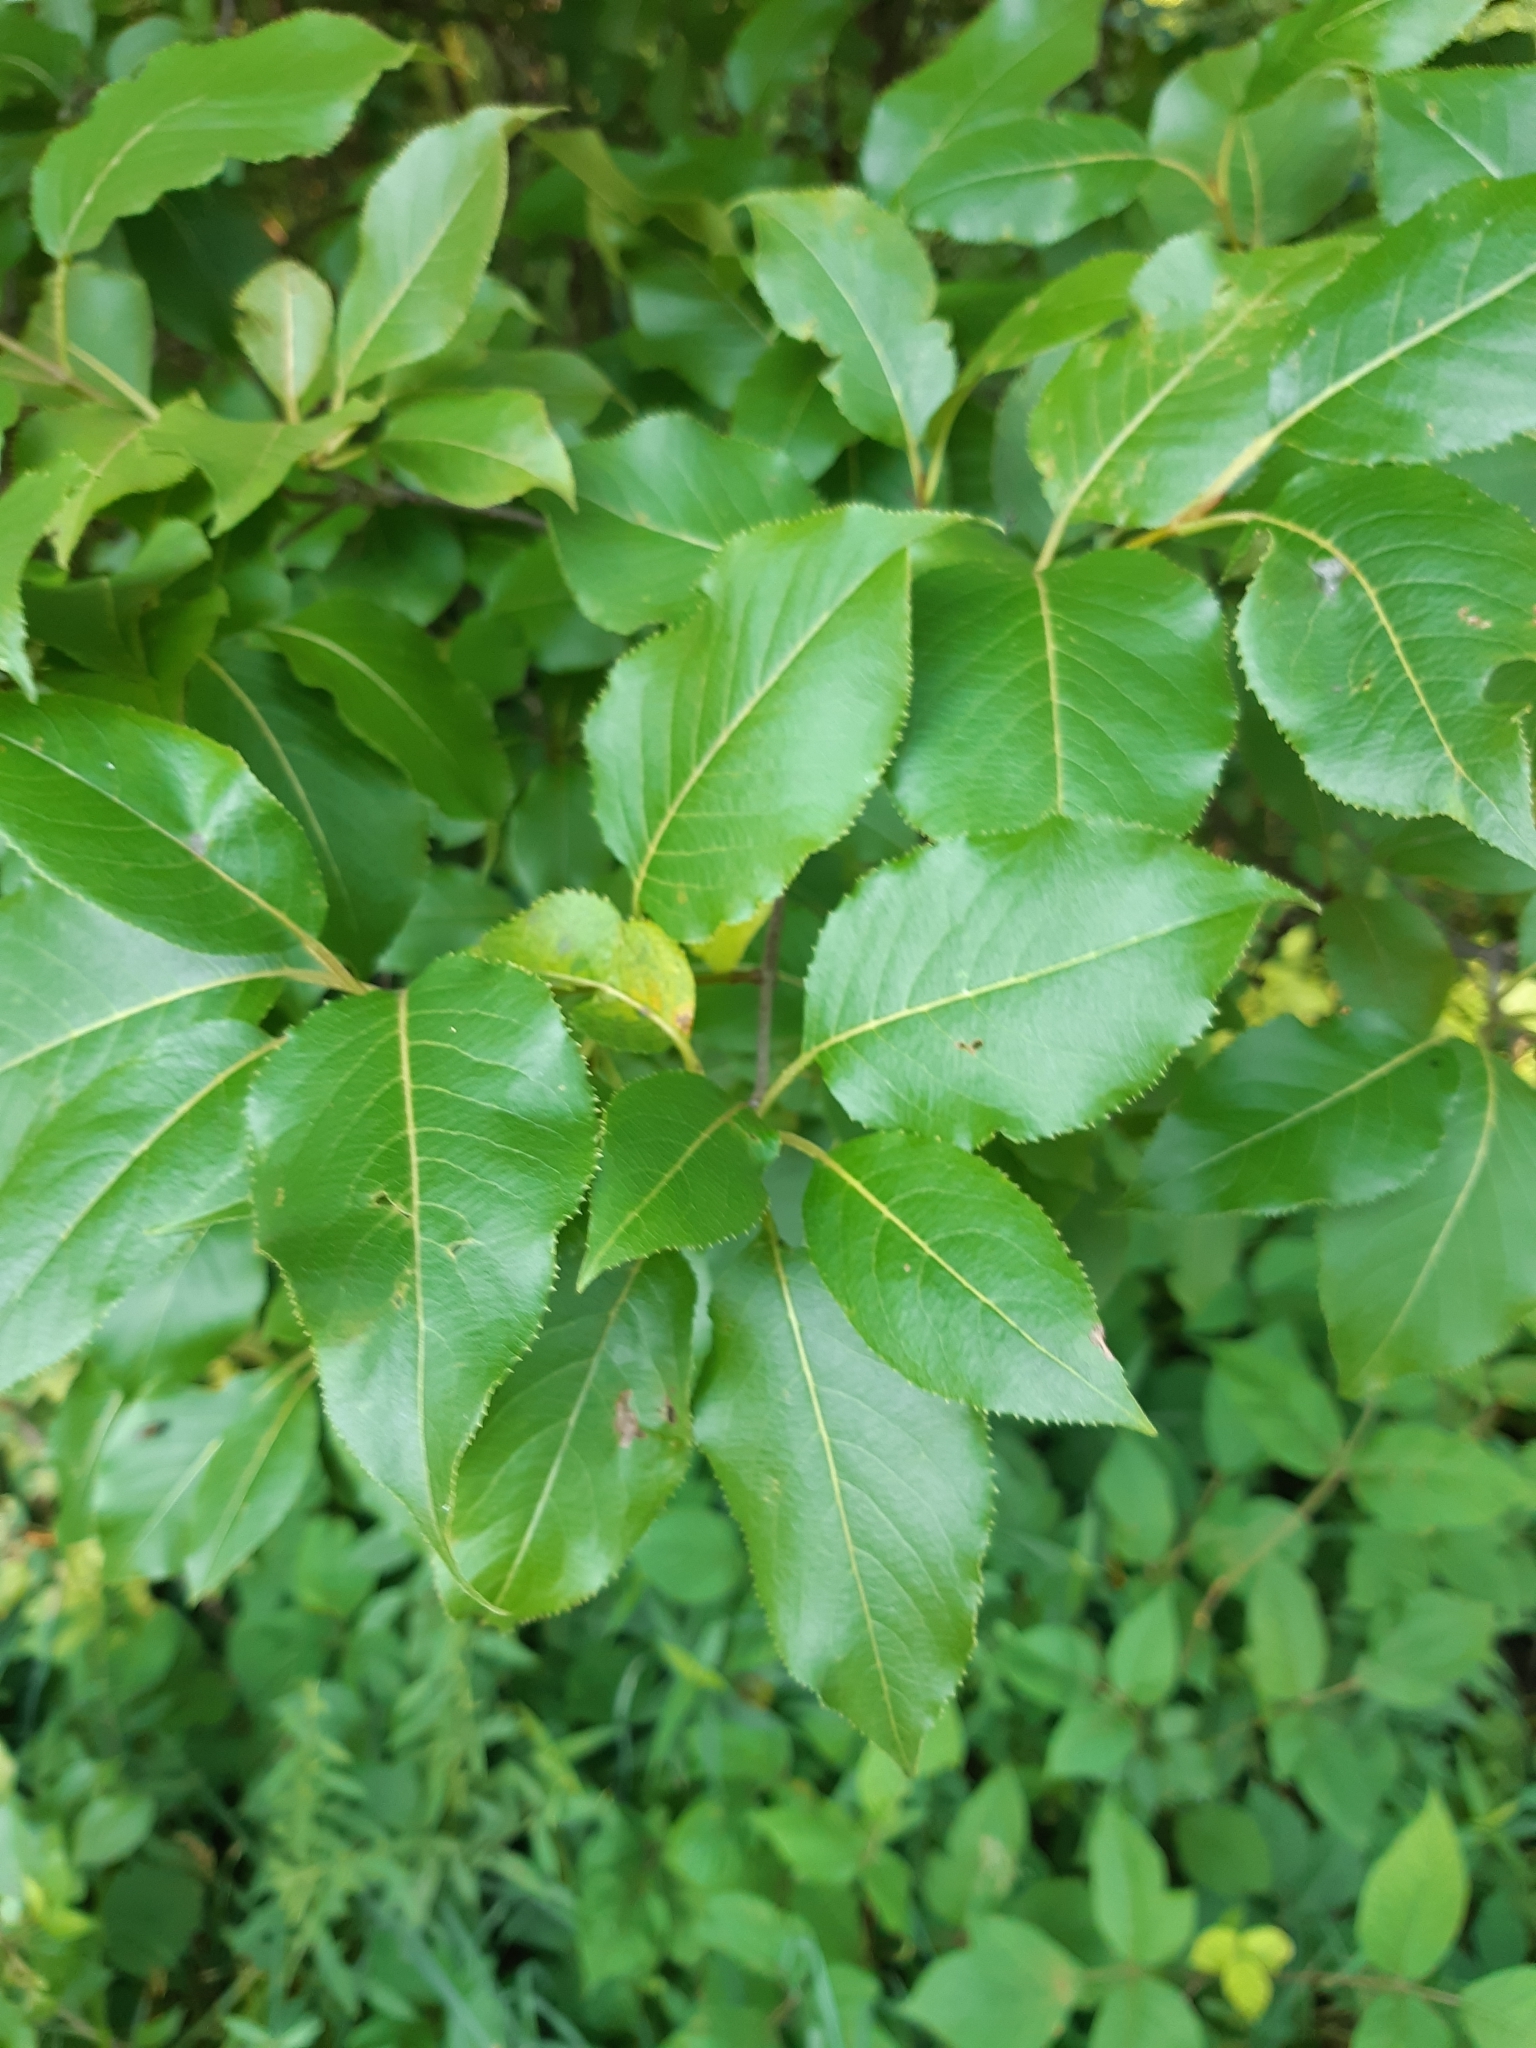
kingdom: Plantae
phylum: Tracheophyta
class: Magnoliopsida
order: Dipsacales
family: Viburnaceae
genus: Viburnum
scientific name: Viburnum lentago
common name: Black haw
